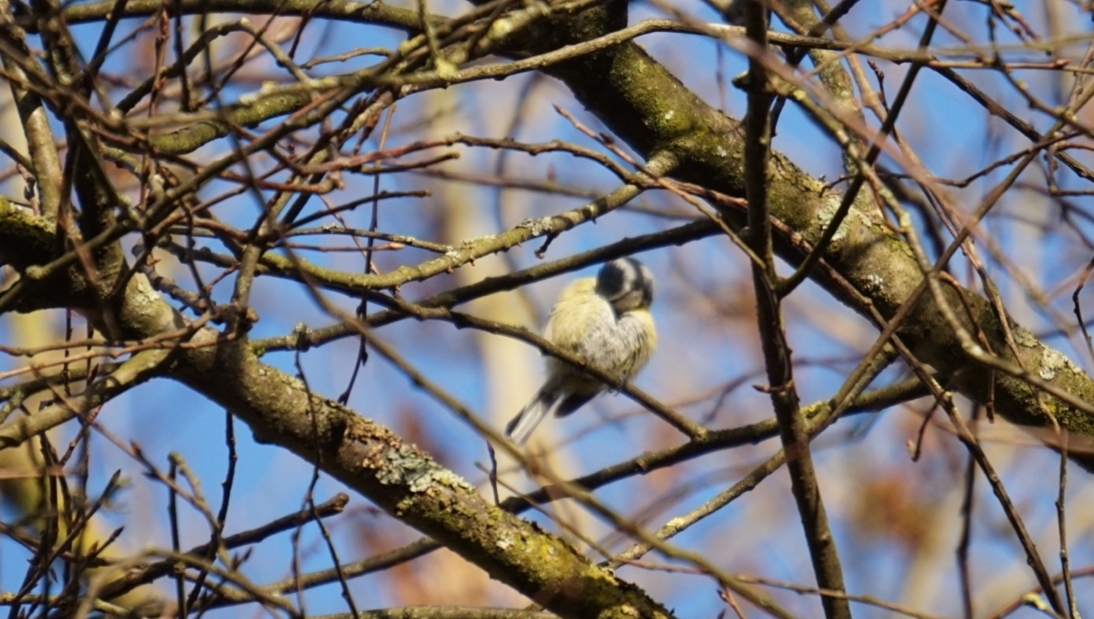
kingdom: Animalia
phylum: Chordata
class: Aves
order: Passeriformes
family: Paridae
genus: Cyanistes
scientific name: Cyanistes caeruleus
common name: Eurasian blue tit
